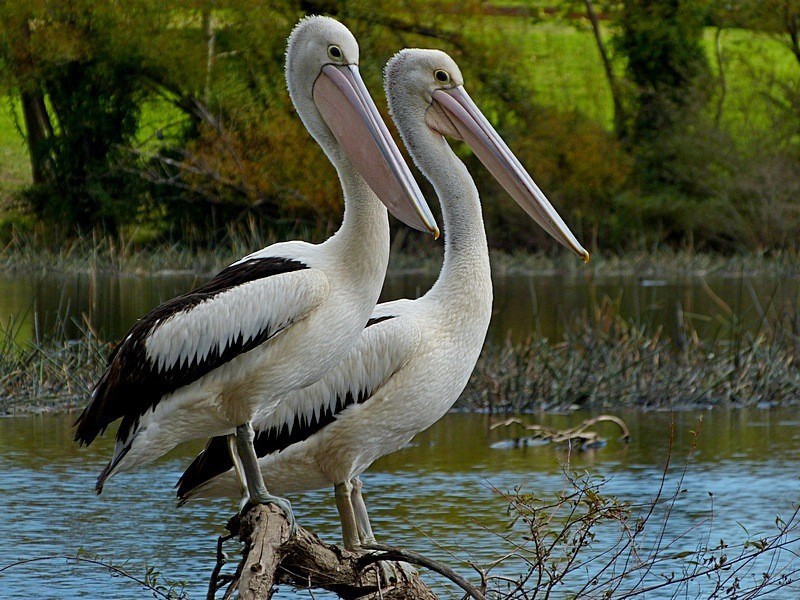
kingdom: Animalia
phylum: Chordata
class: Aves
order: Pelecaniformes
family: Pelecanidae
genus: Pelecanus
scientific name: Pelecanus conspicillatus
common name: Australian pelican
